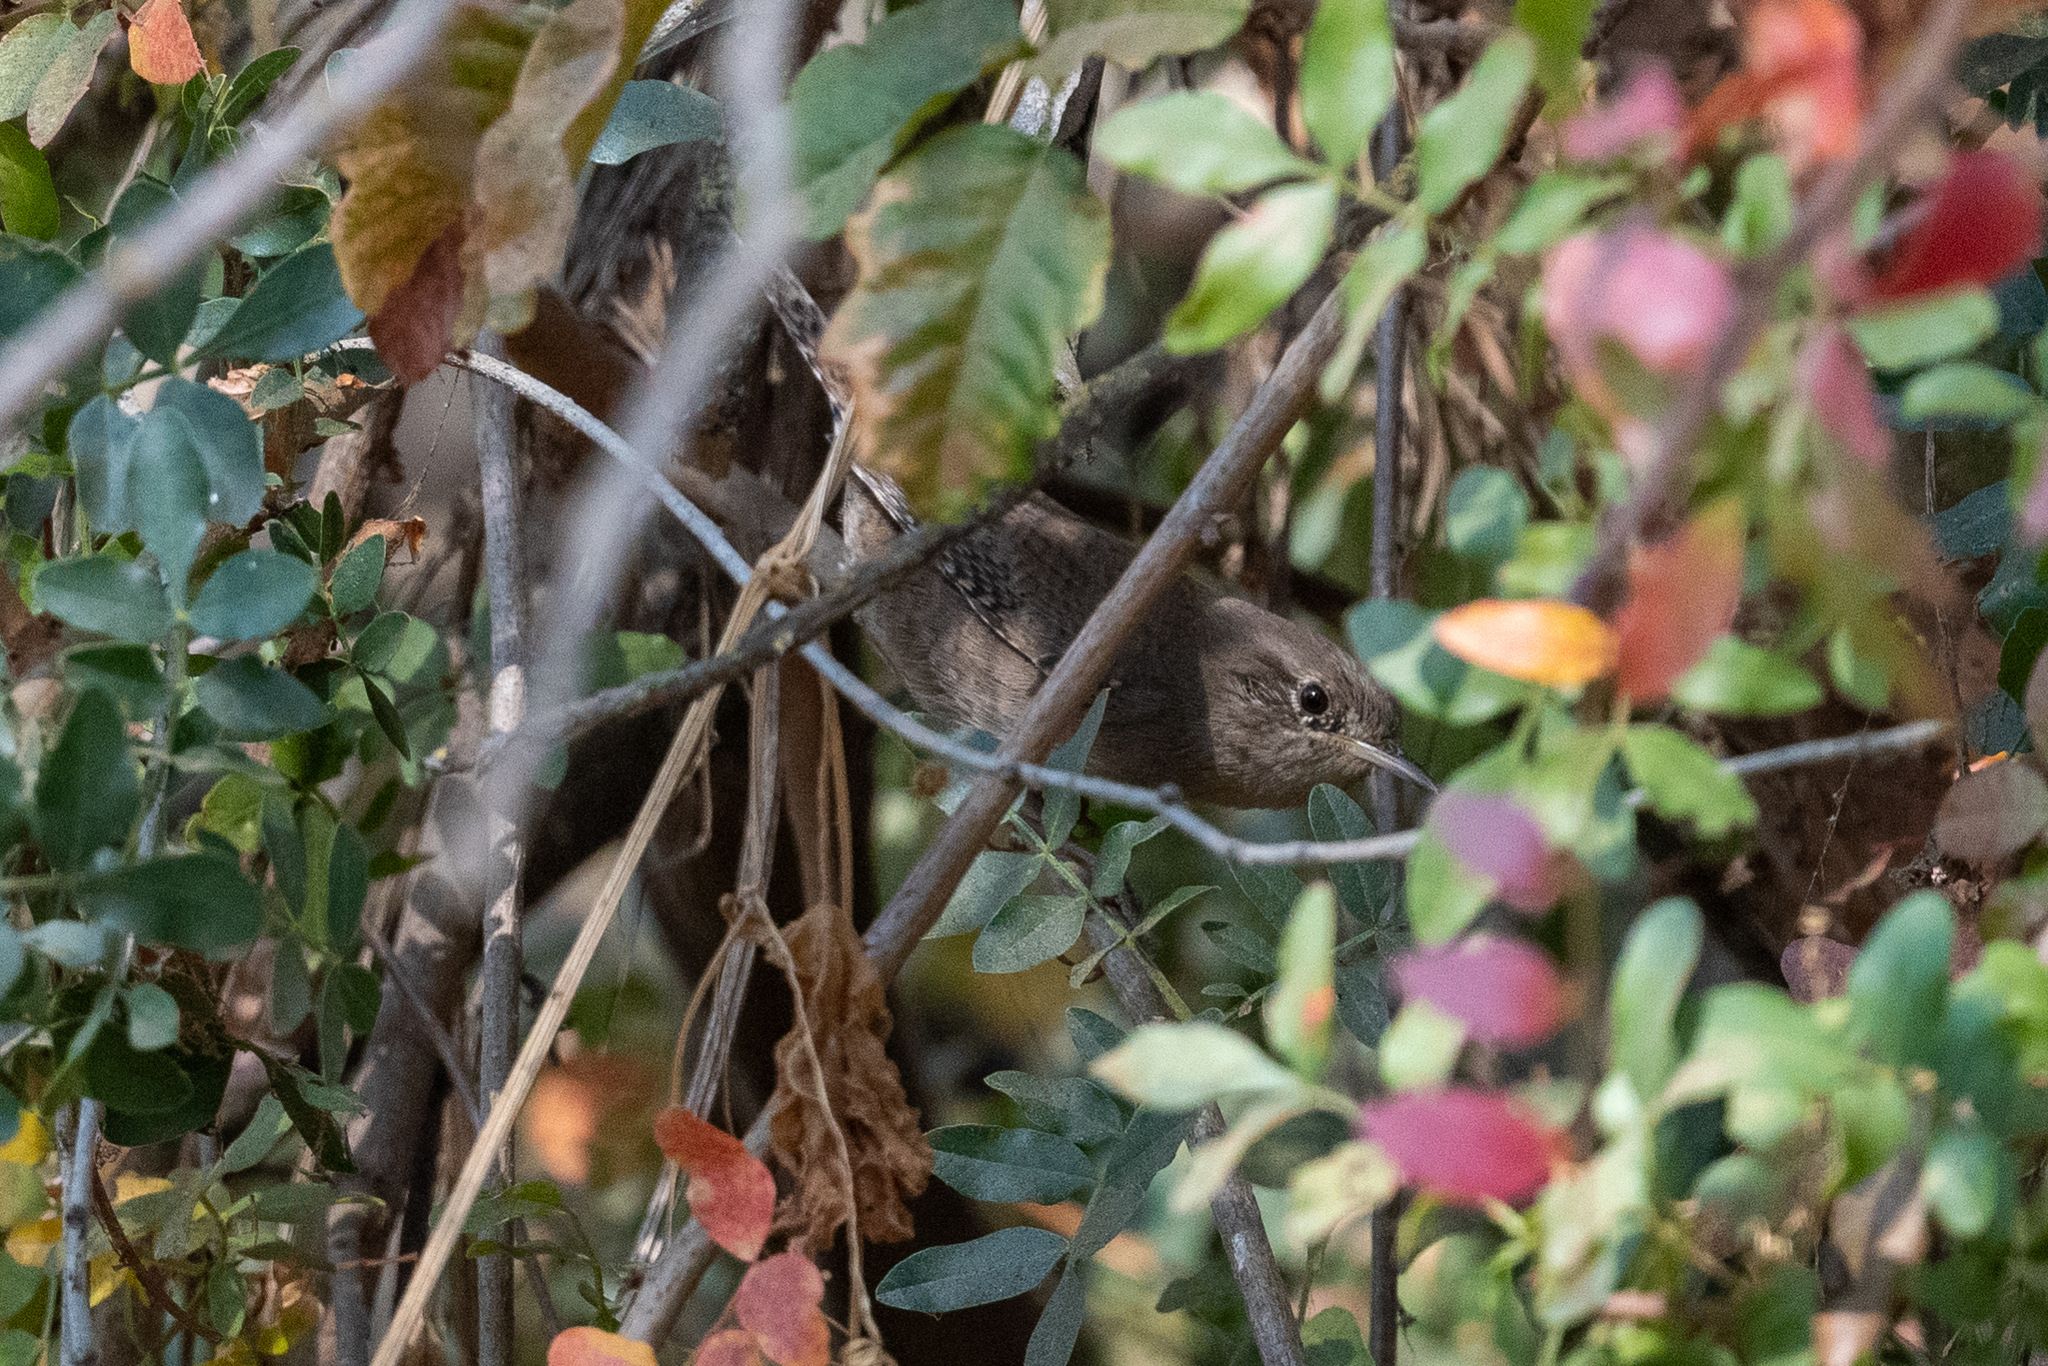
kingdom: Animalia
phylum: Chordata
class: Aves
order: Passeriformes
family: Troglodytidae
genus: Troglodytes
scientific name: Troglodytes aedon
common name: House wren
